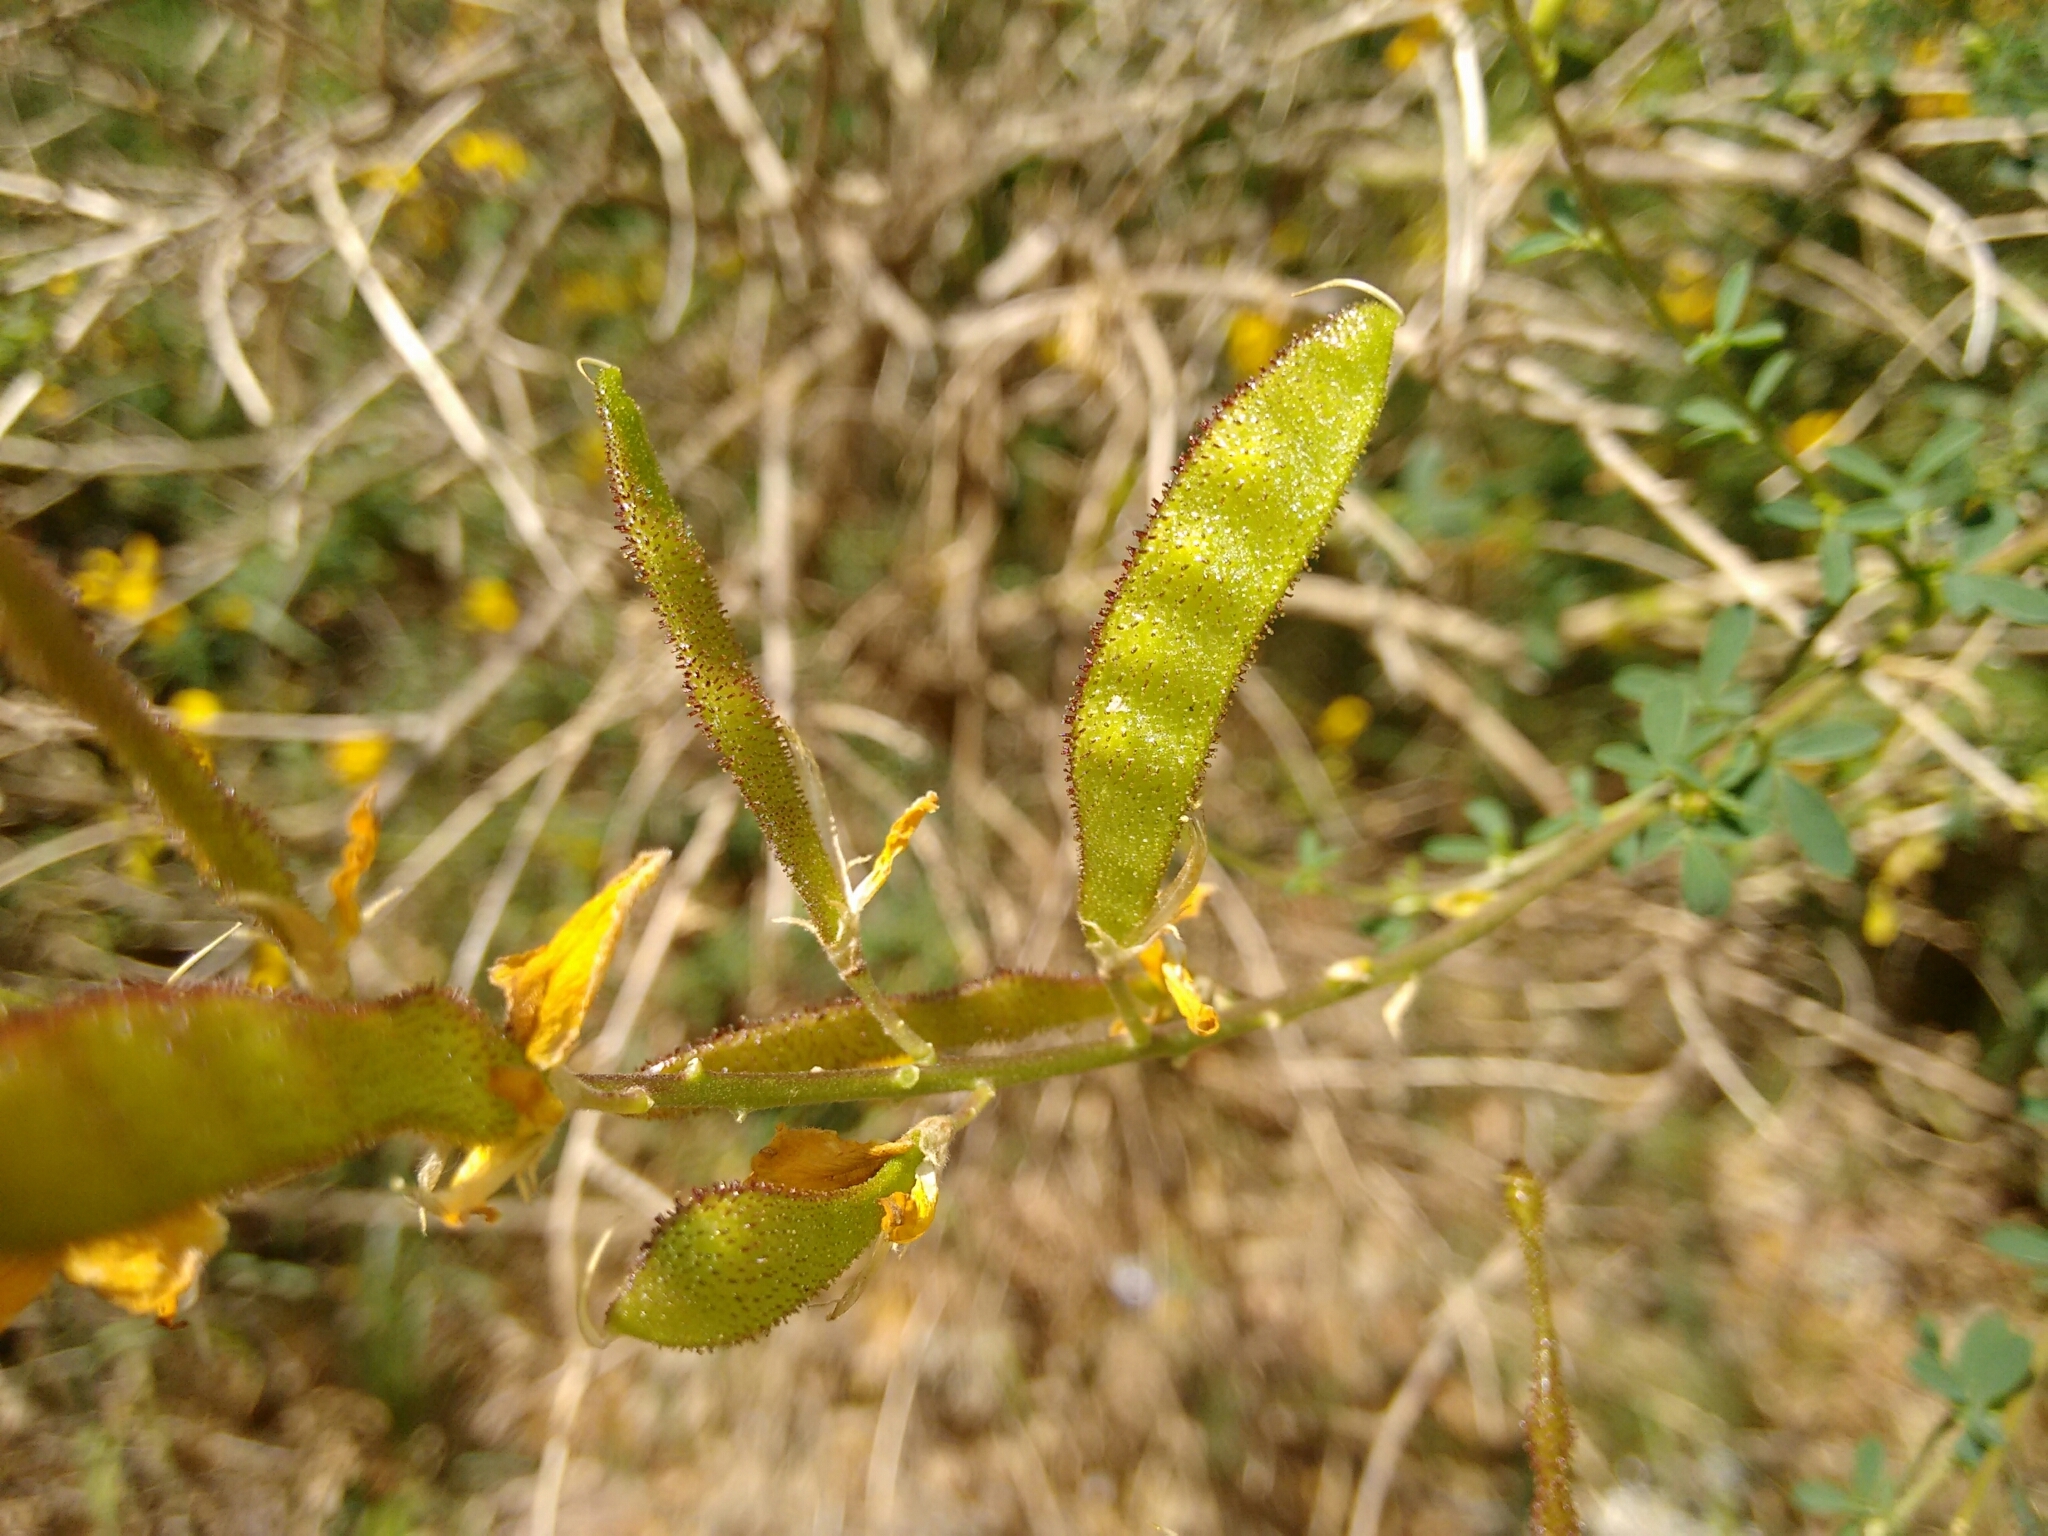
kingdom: Plantae
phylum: Tracheophyta
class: Magnoliopsida
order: Fabales
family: Fabaceae
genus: Adenocarpus
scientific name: Adenocarpus complicatus
